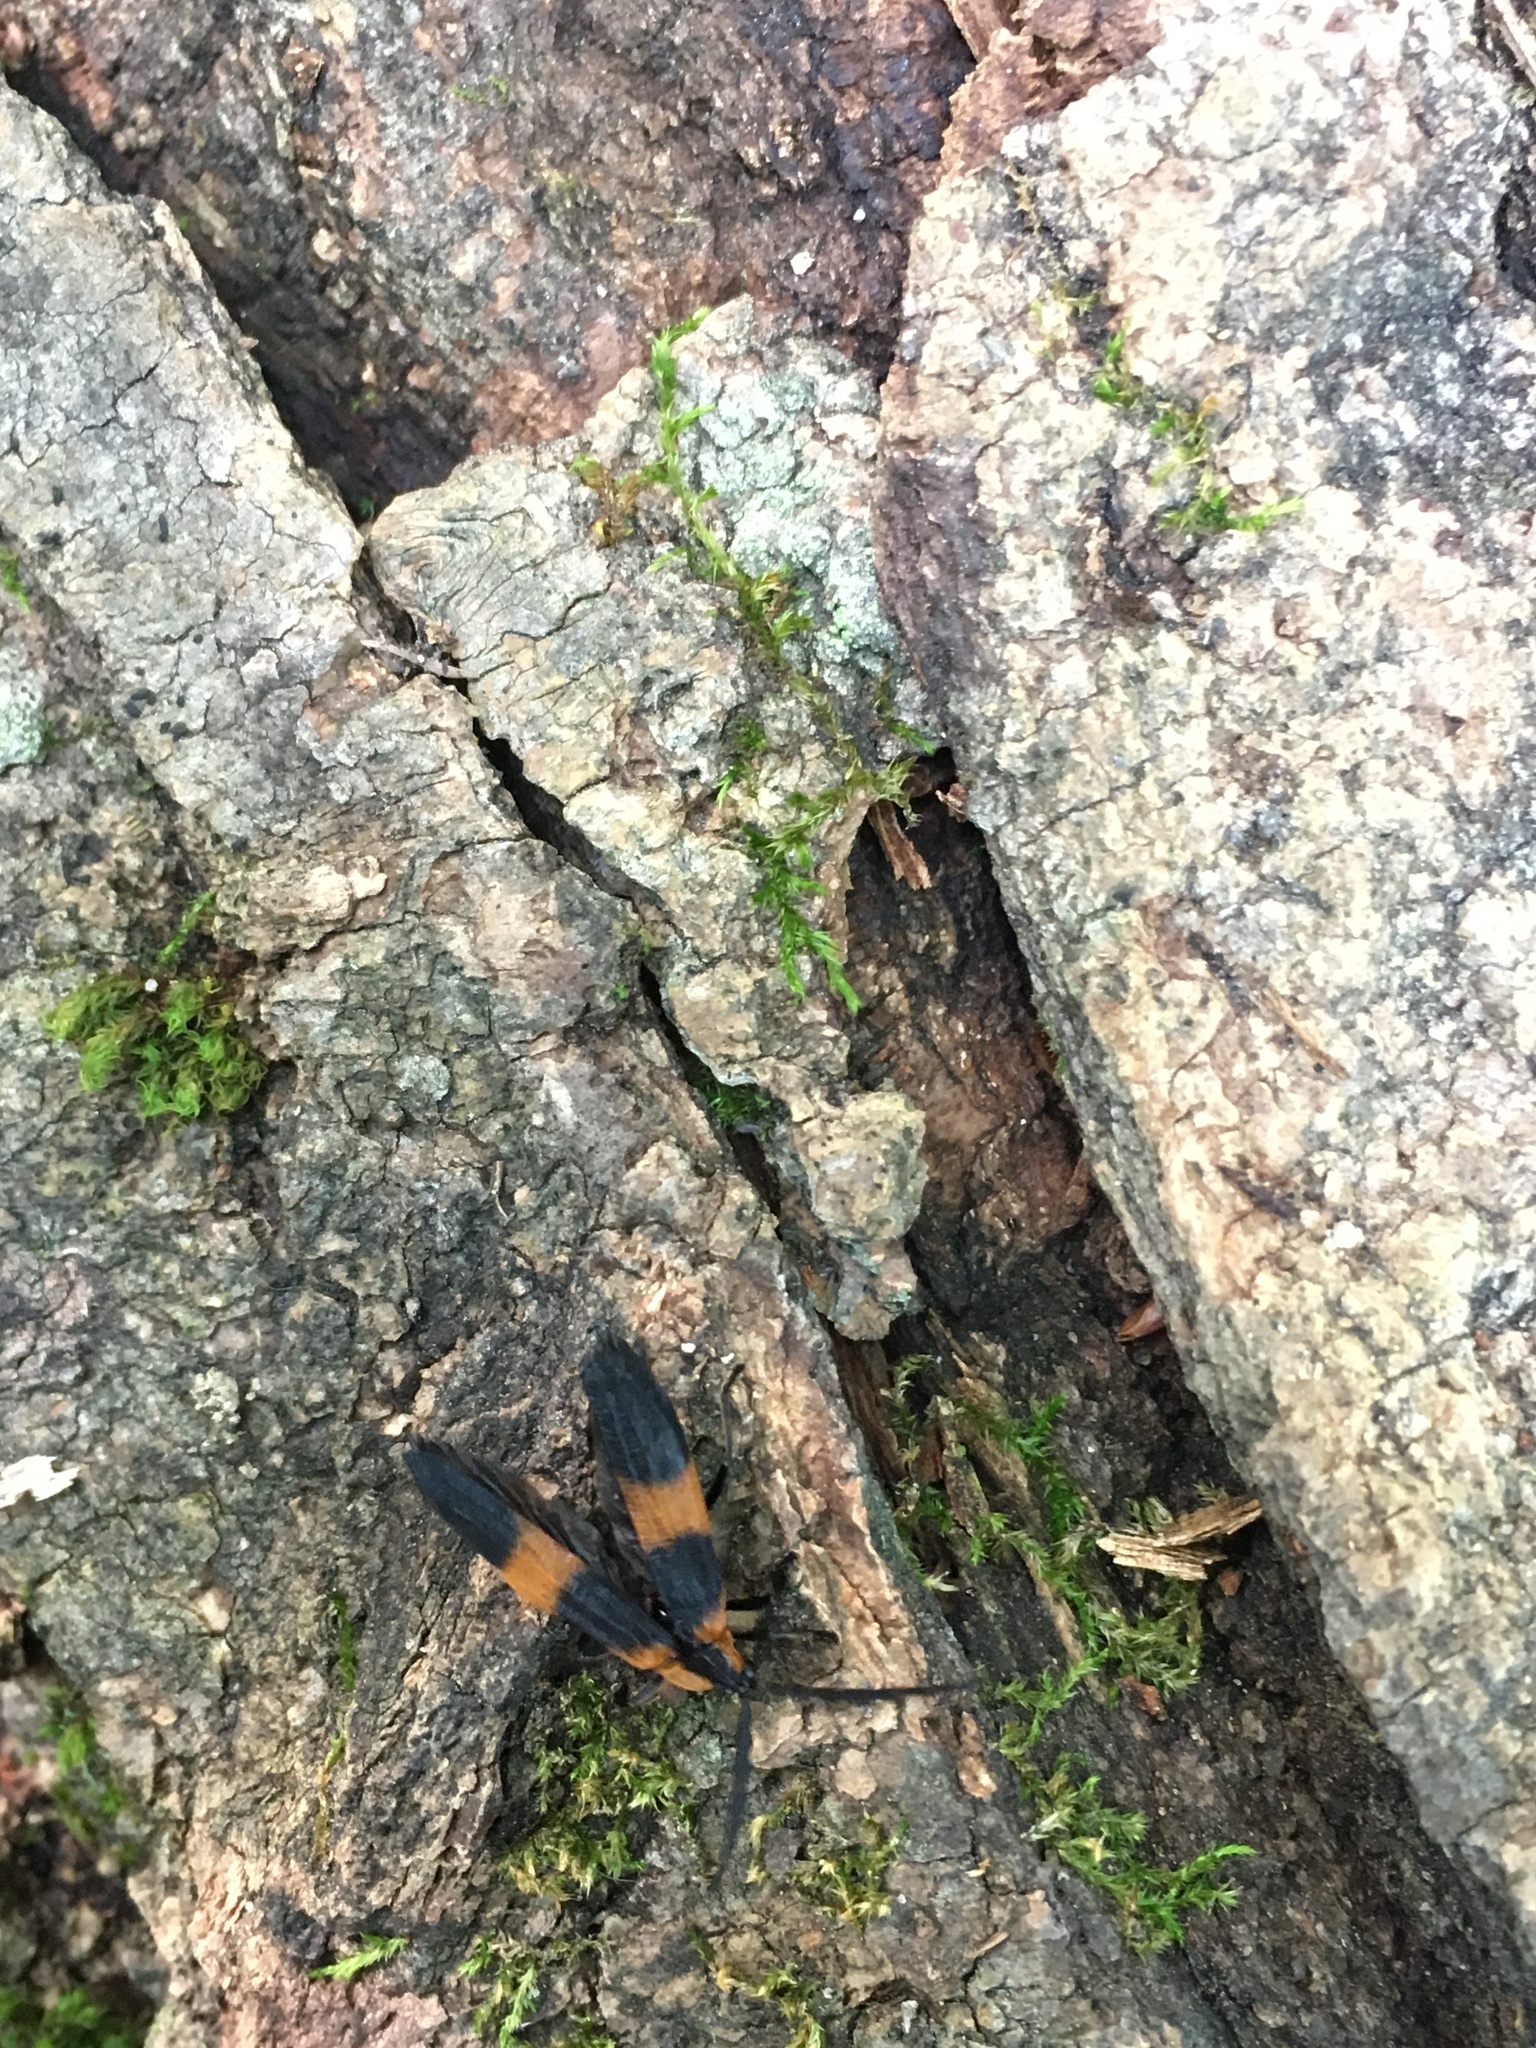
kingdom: Animalia
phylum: Arthropoda
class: Insecta
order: Coleoptera
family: Lycidae
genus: Calopteron
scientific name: Calopteron reticulatum
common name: Banded net-winged beetle
